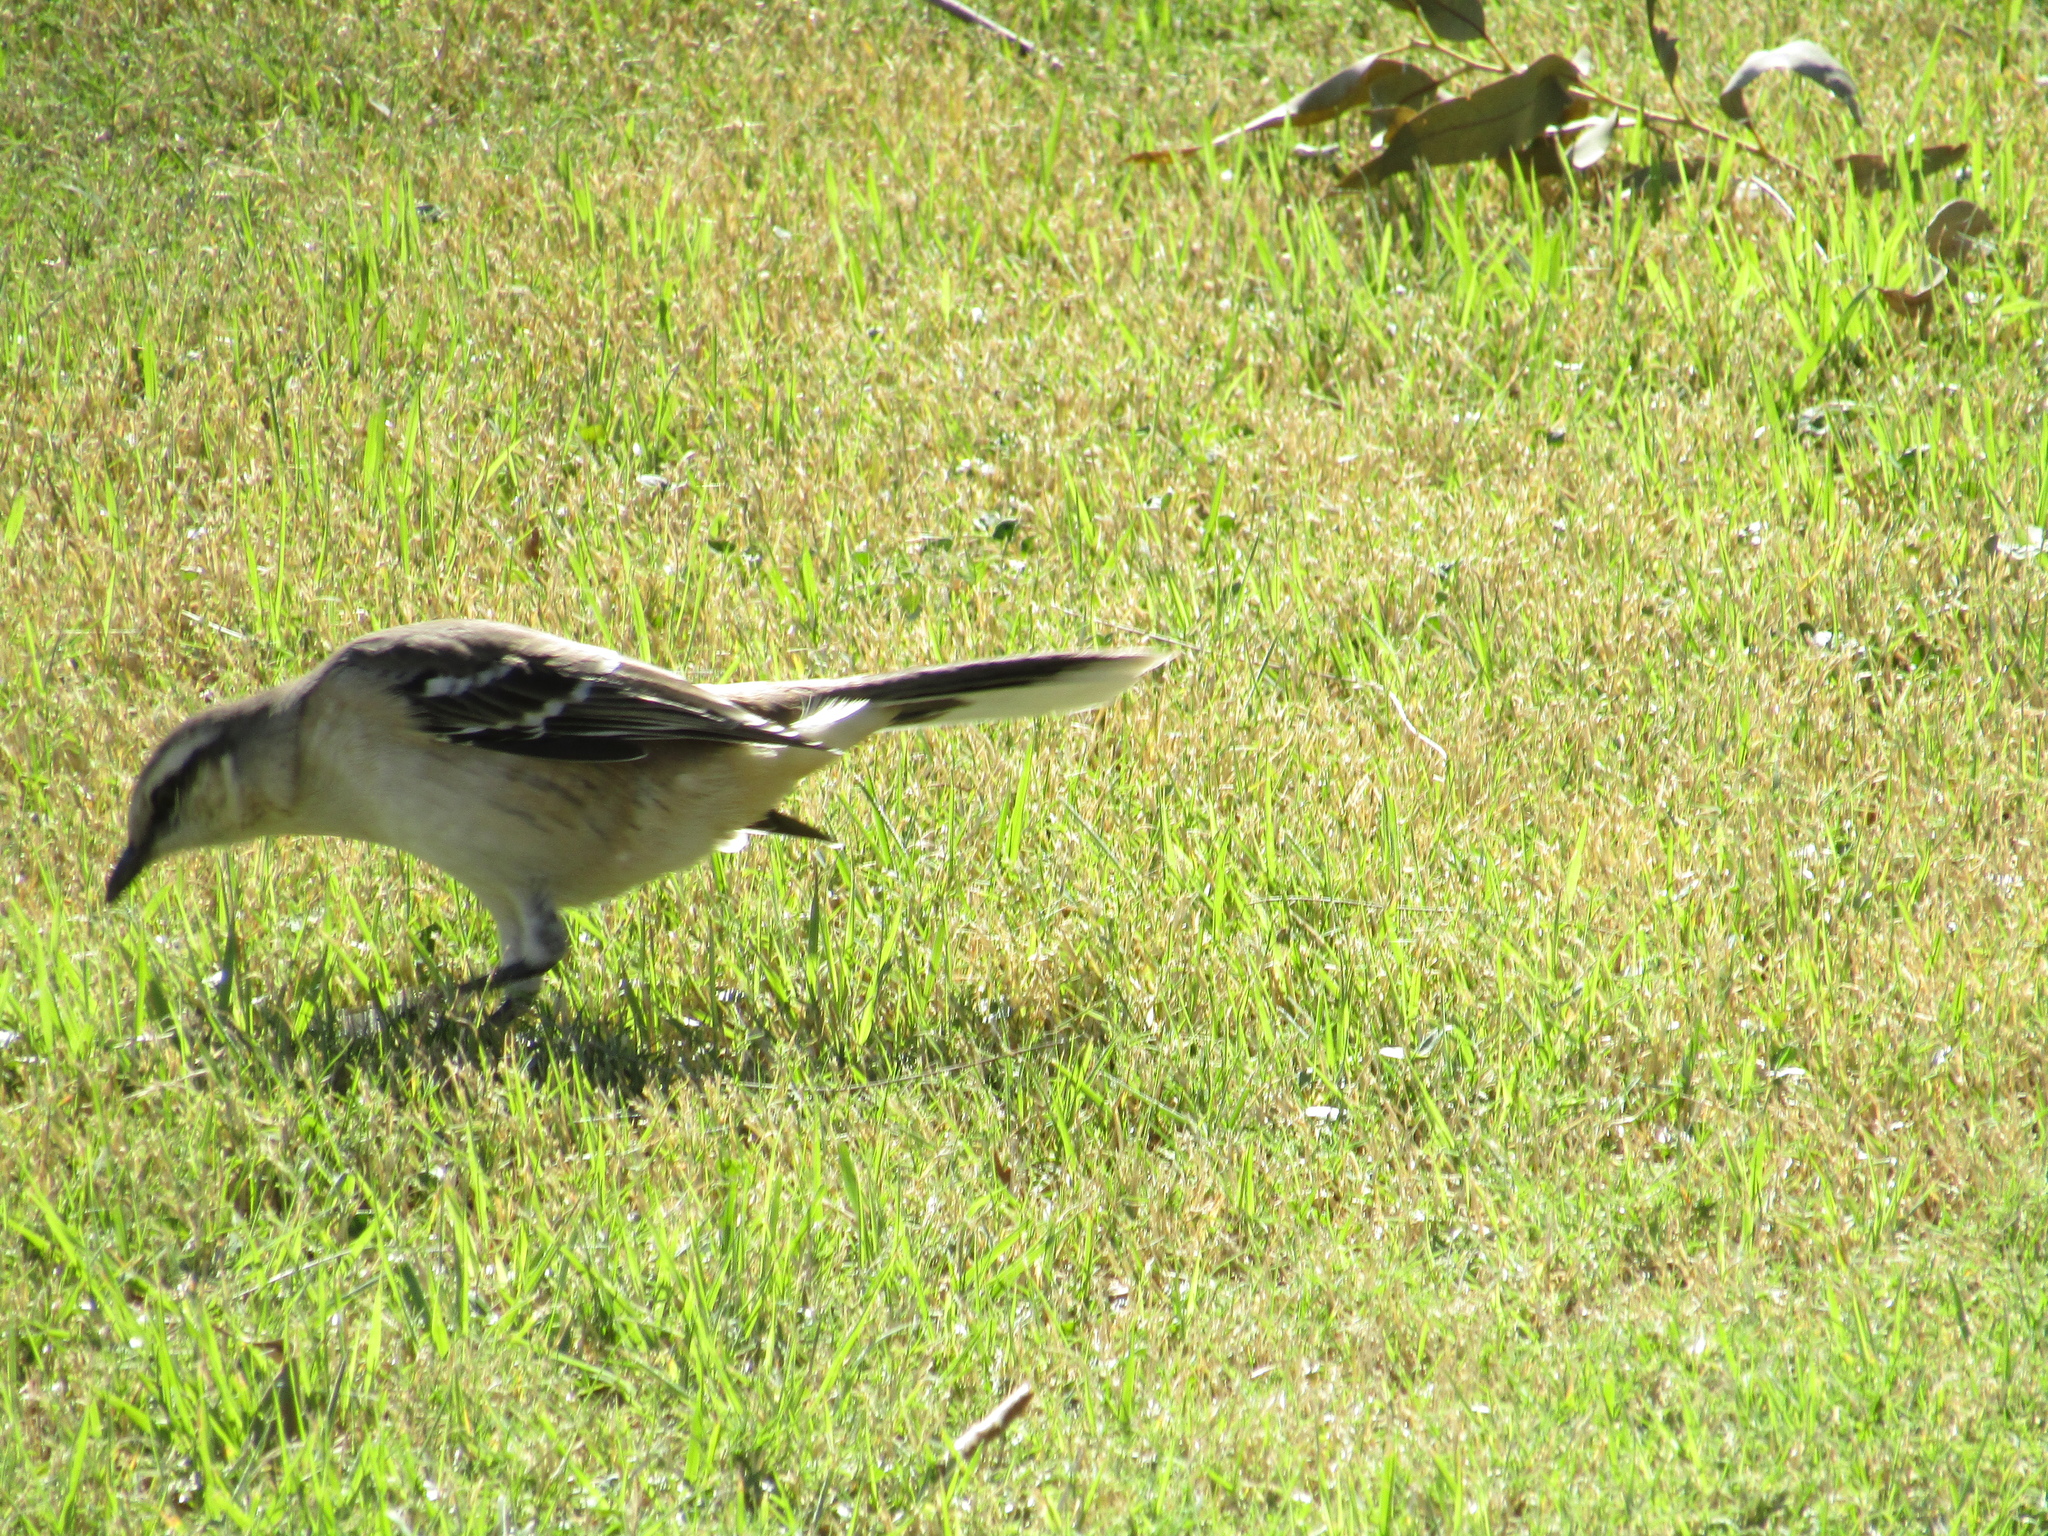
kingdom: Animalia
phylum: Chordata
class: Aves
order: Passeriformes
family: Mimidae
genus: Mimus
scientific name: Mimus saturninus
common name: Chalk-browed mockingbird
